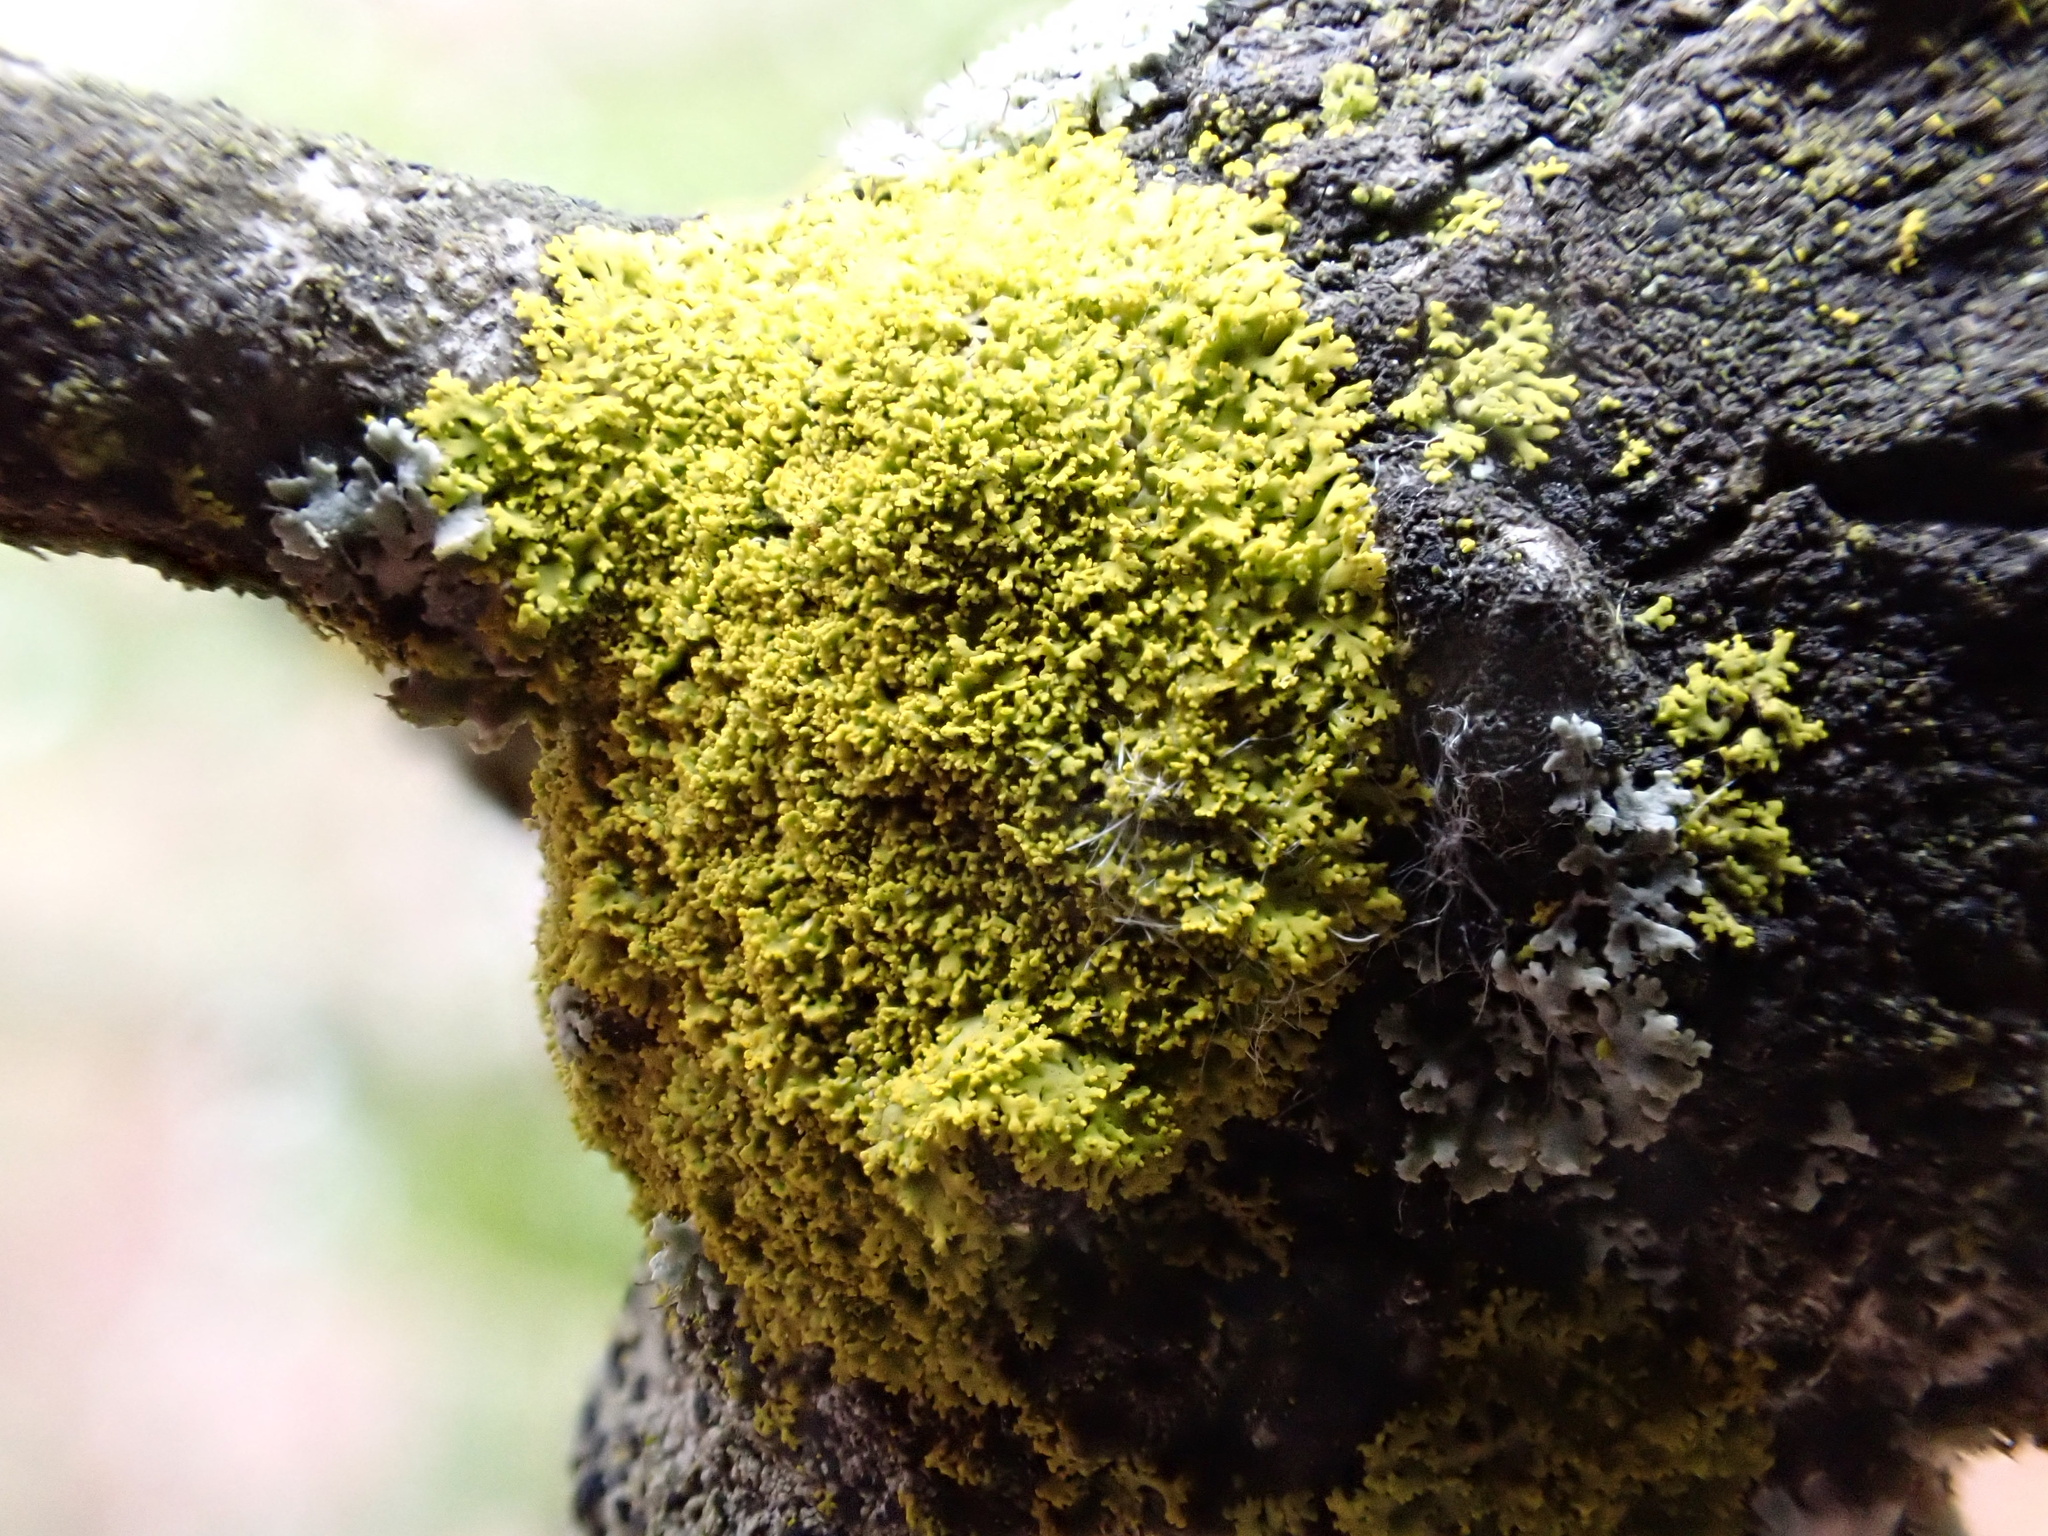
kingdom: Fungi
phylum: Ascomycota
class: Candelariomycetes
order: Candelariales
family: Candelariaceae
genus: Candelaria
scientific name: Candelaria concolor
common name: Candleflame lichen
